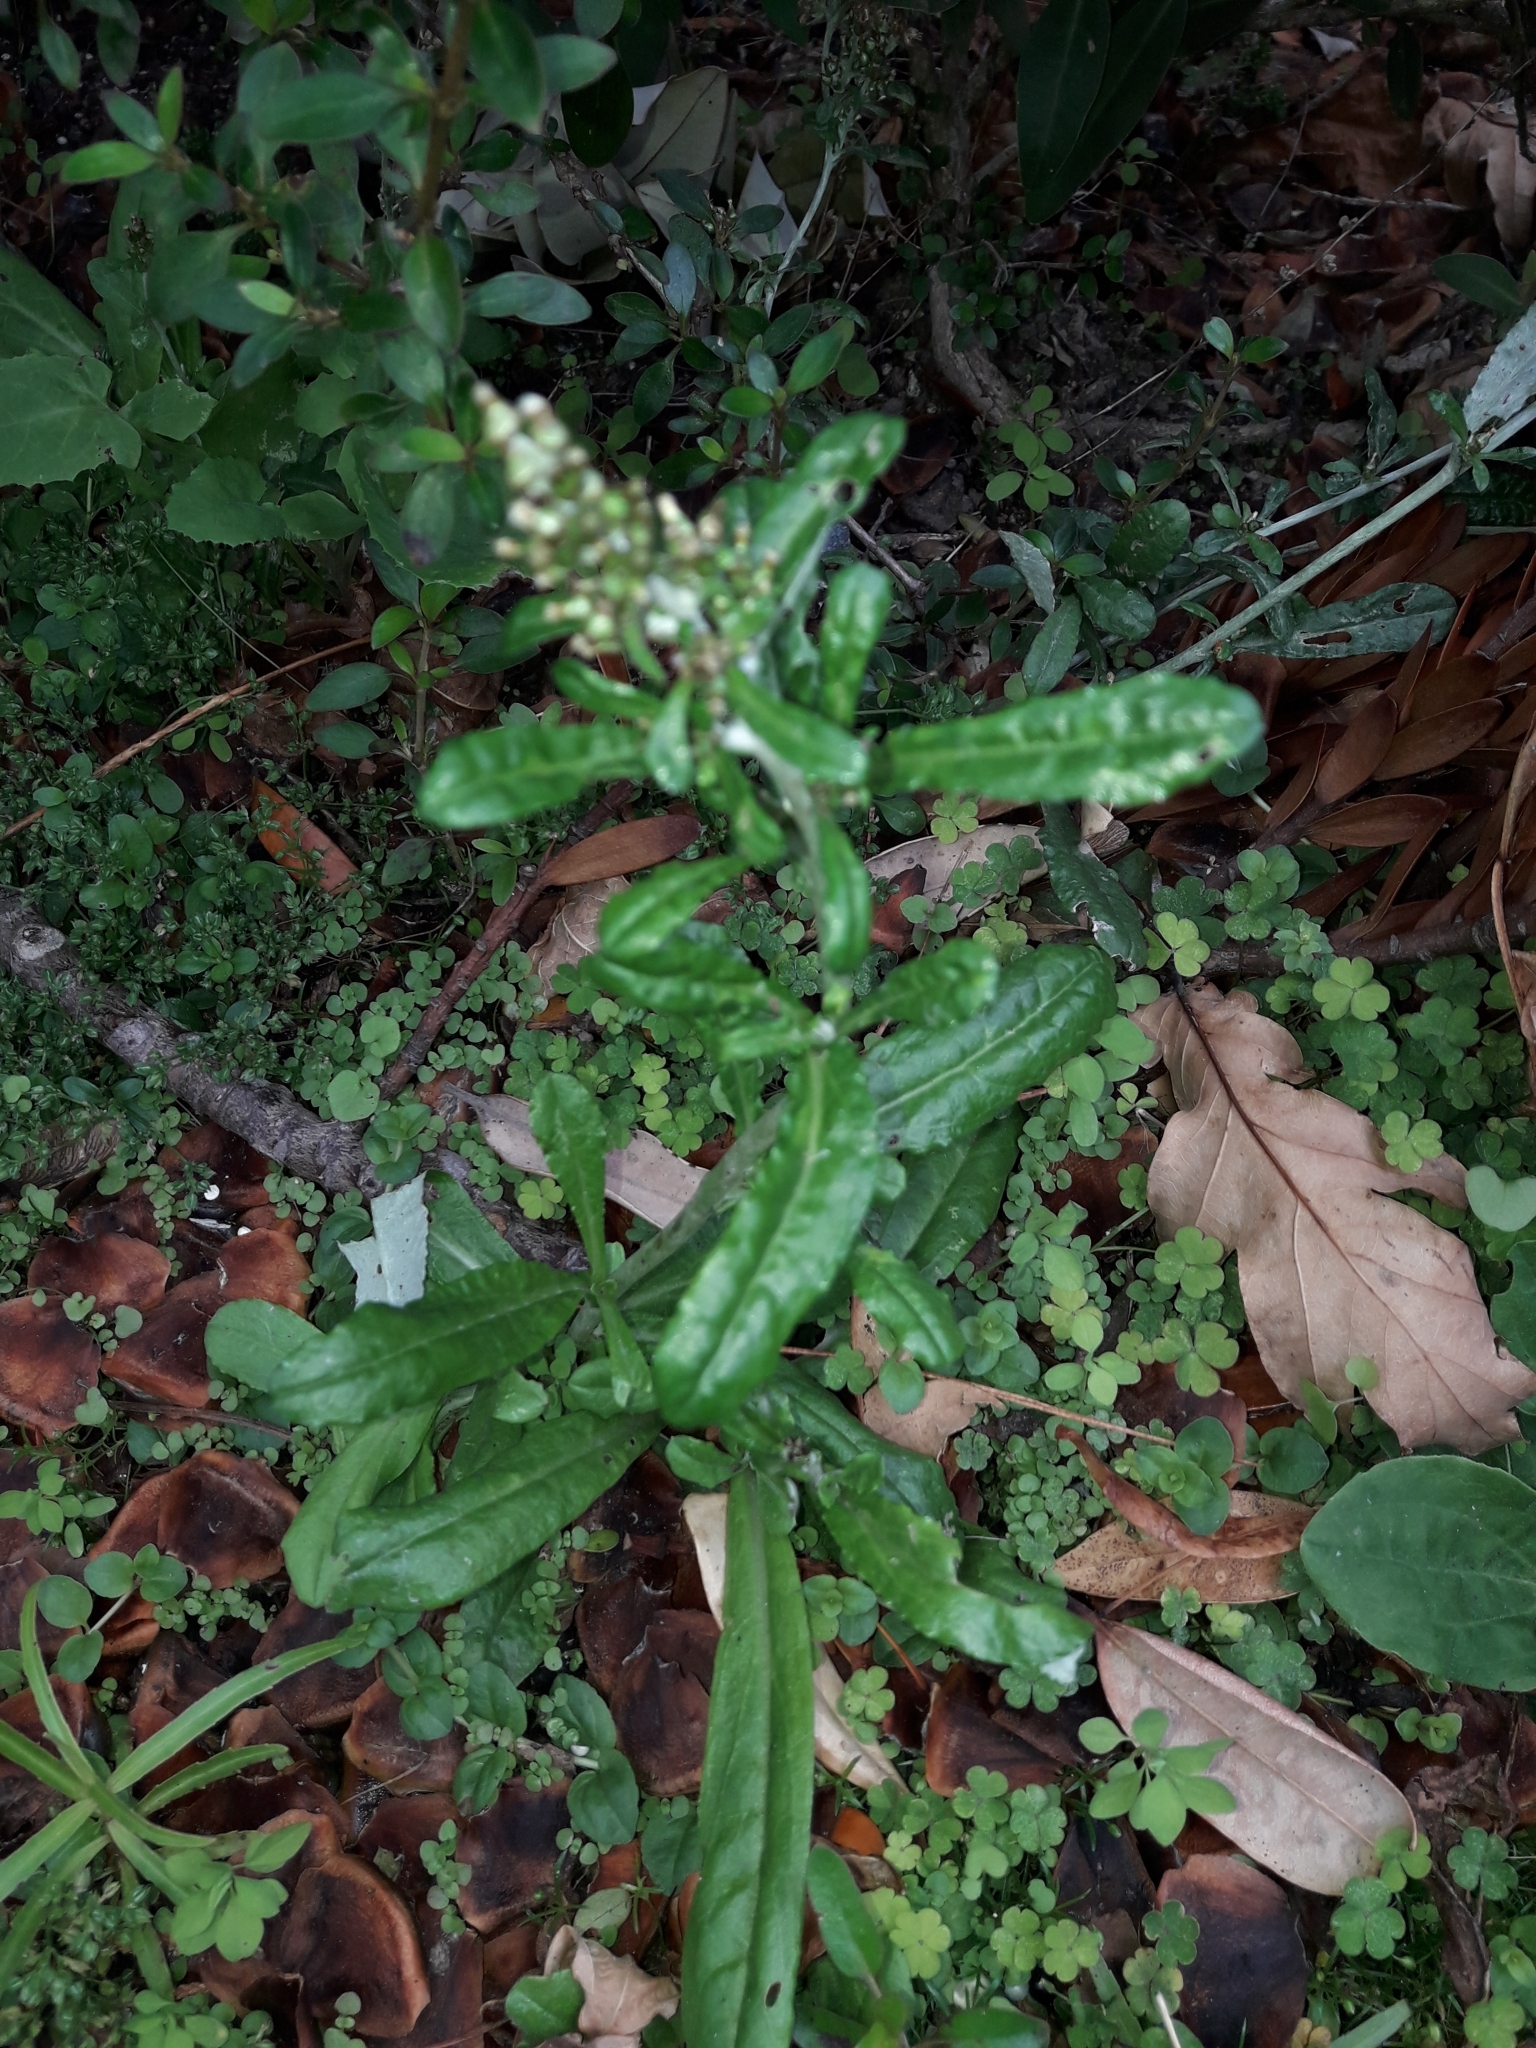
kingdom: Plantae
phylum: Tracheophyta
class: Magnoliopsida
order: Asterales
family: Asteraceae
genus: Gamochaeta
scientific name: Gamochaeta americana
